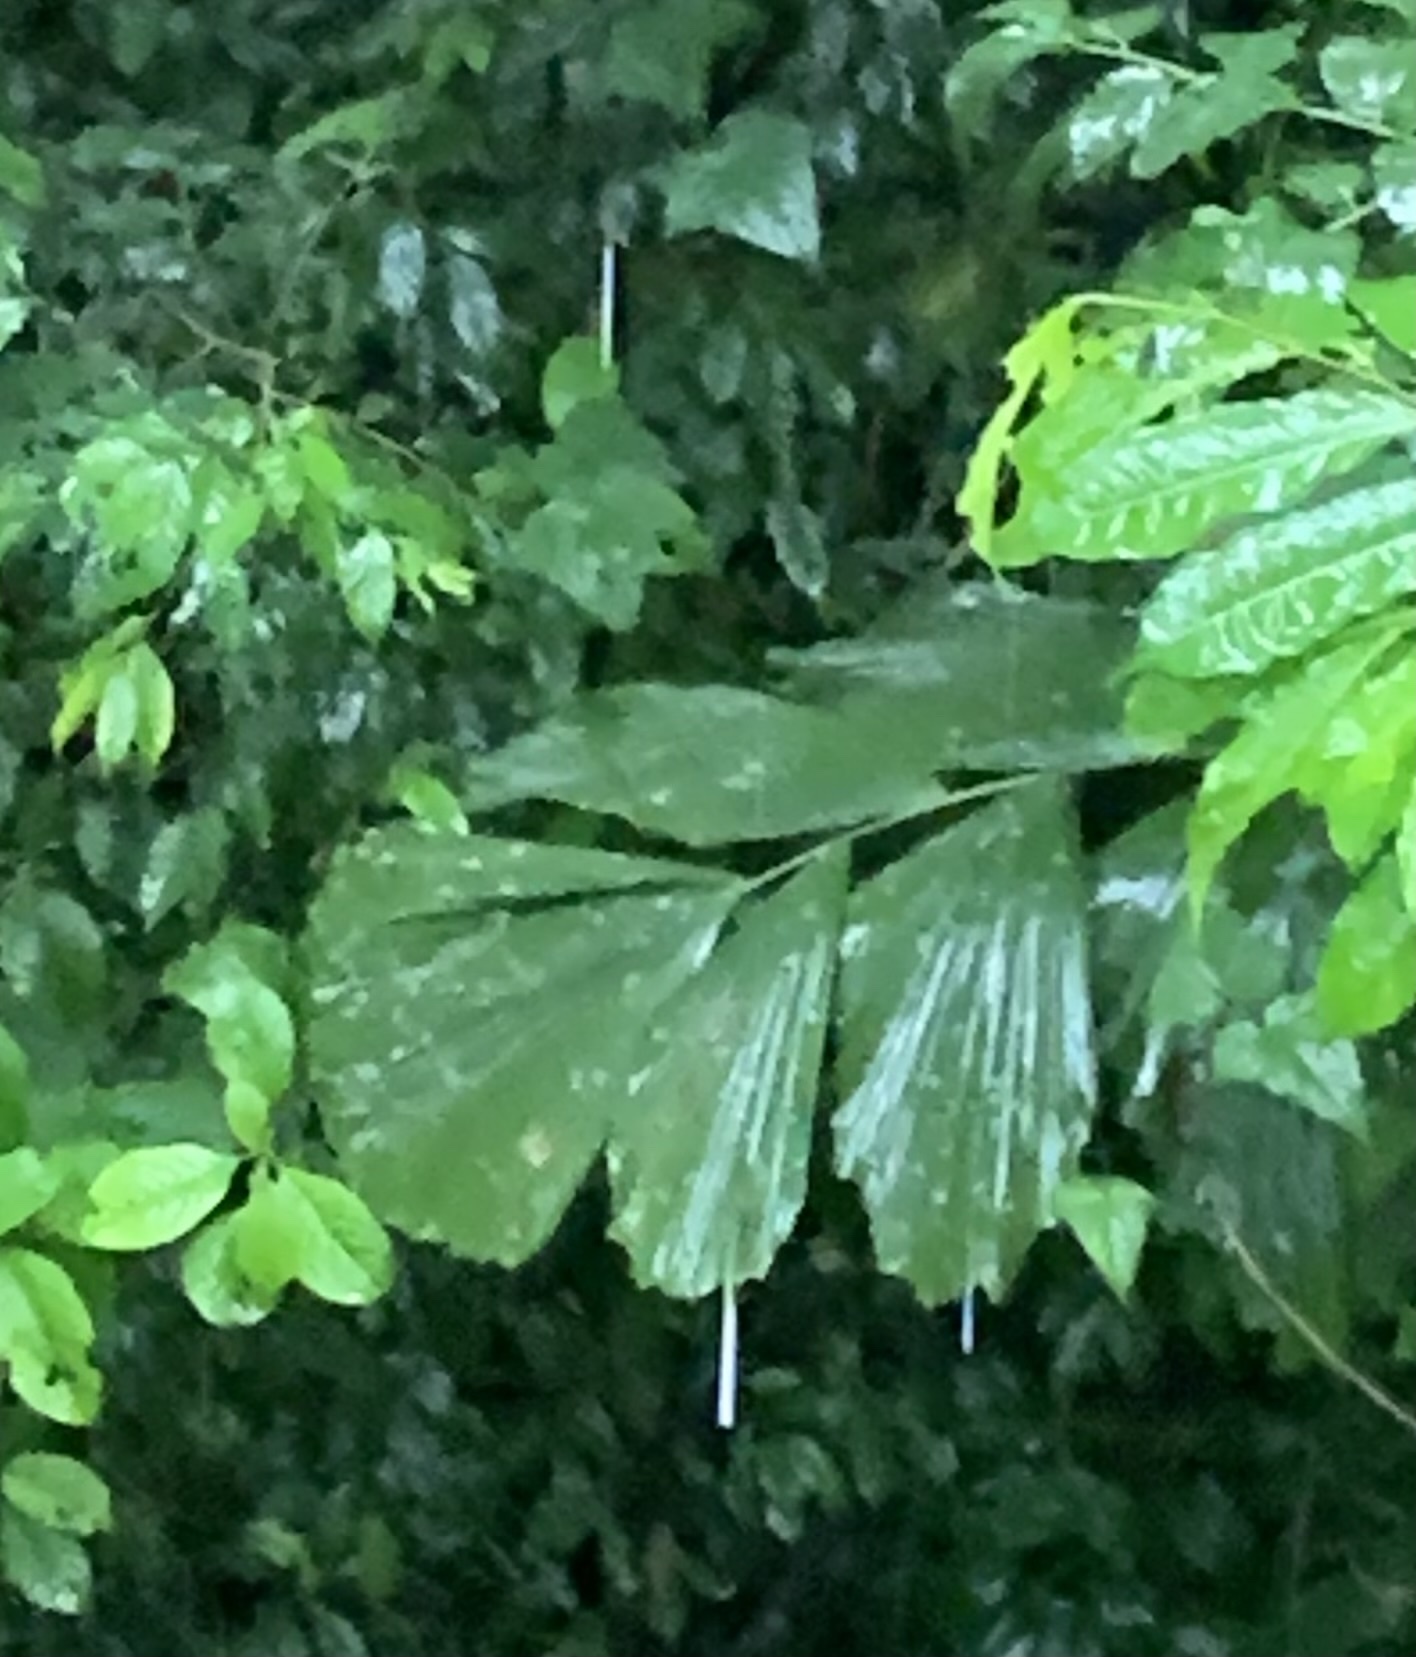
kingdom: Plantae
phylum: Tracheophyta
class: Liliopsida
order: Arecales
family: Arecaceae
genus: Iriartea
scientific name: Iriartea deltoidea
